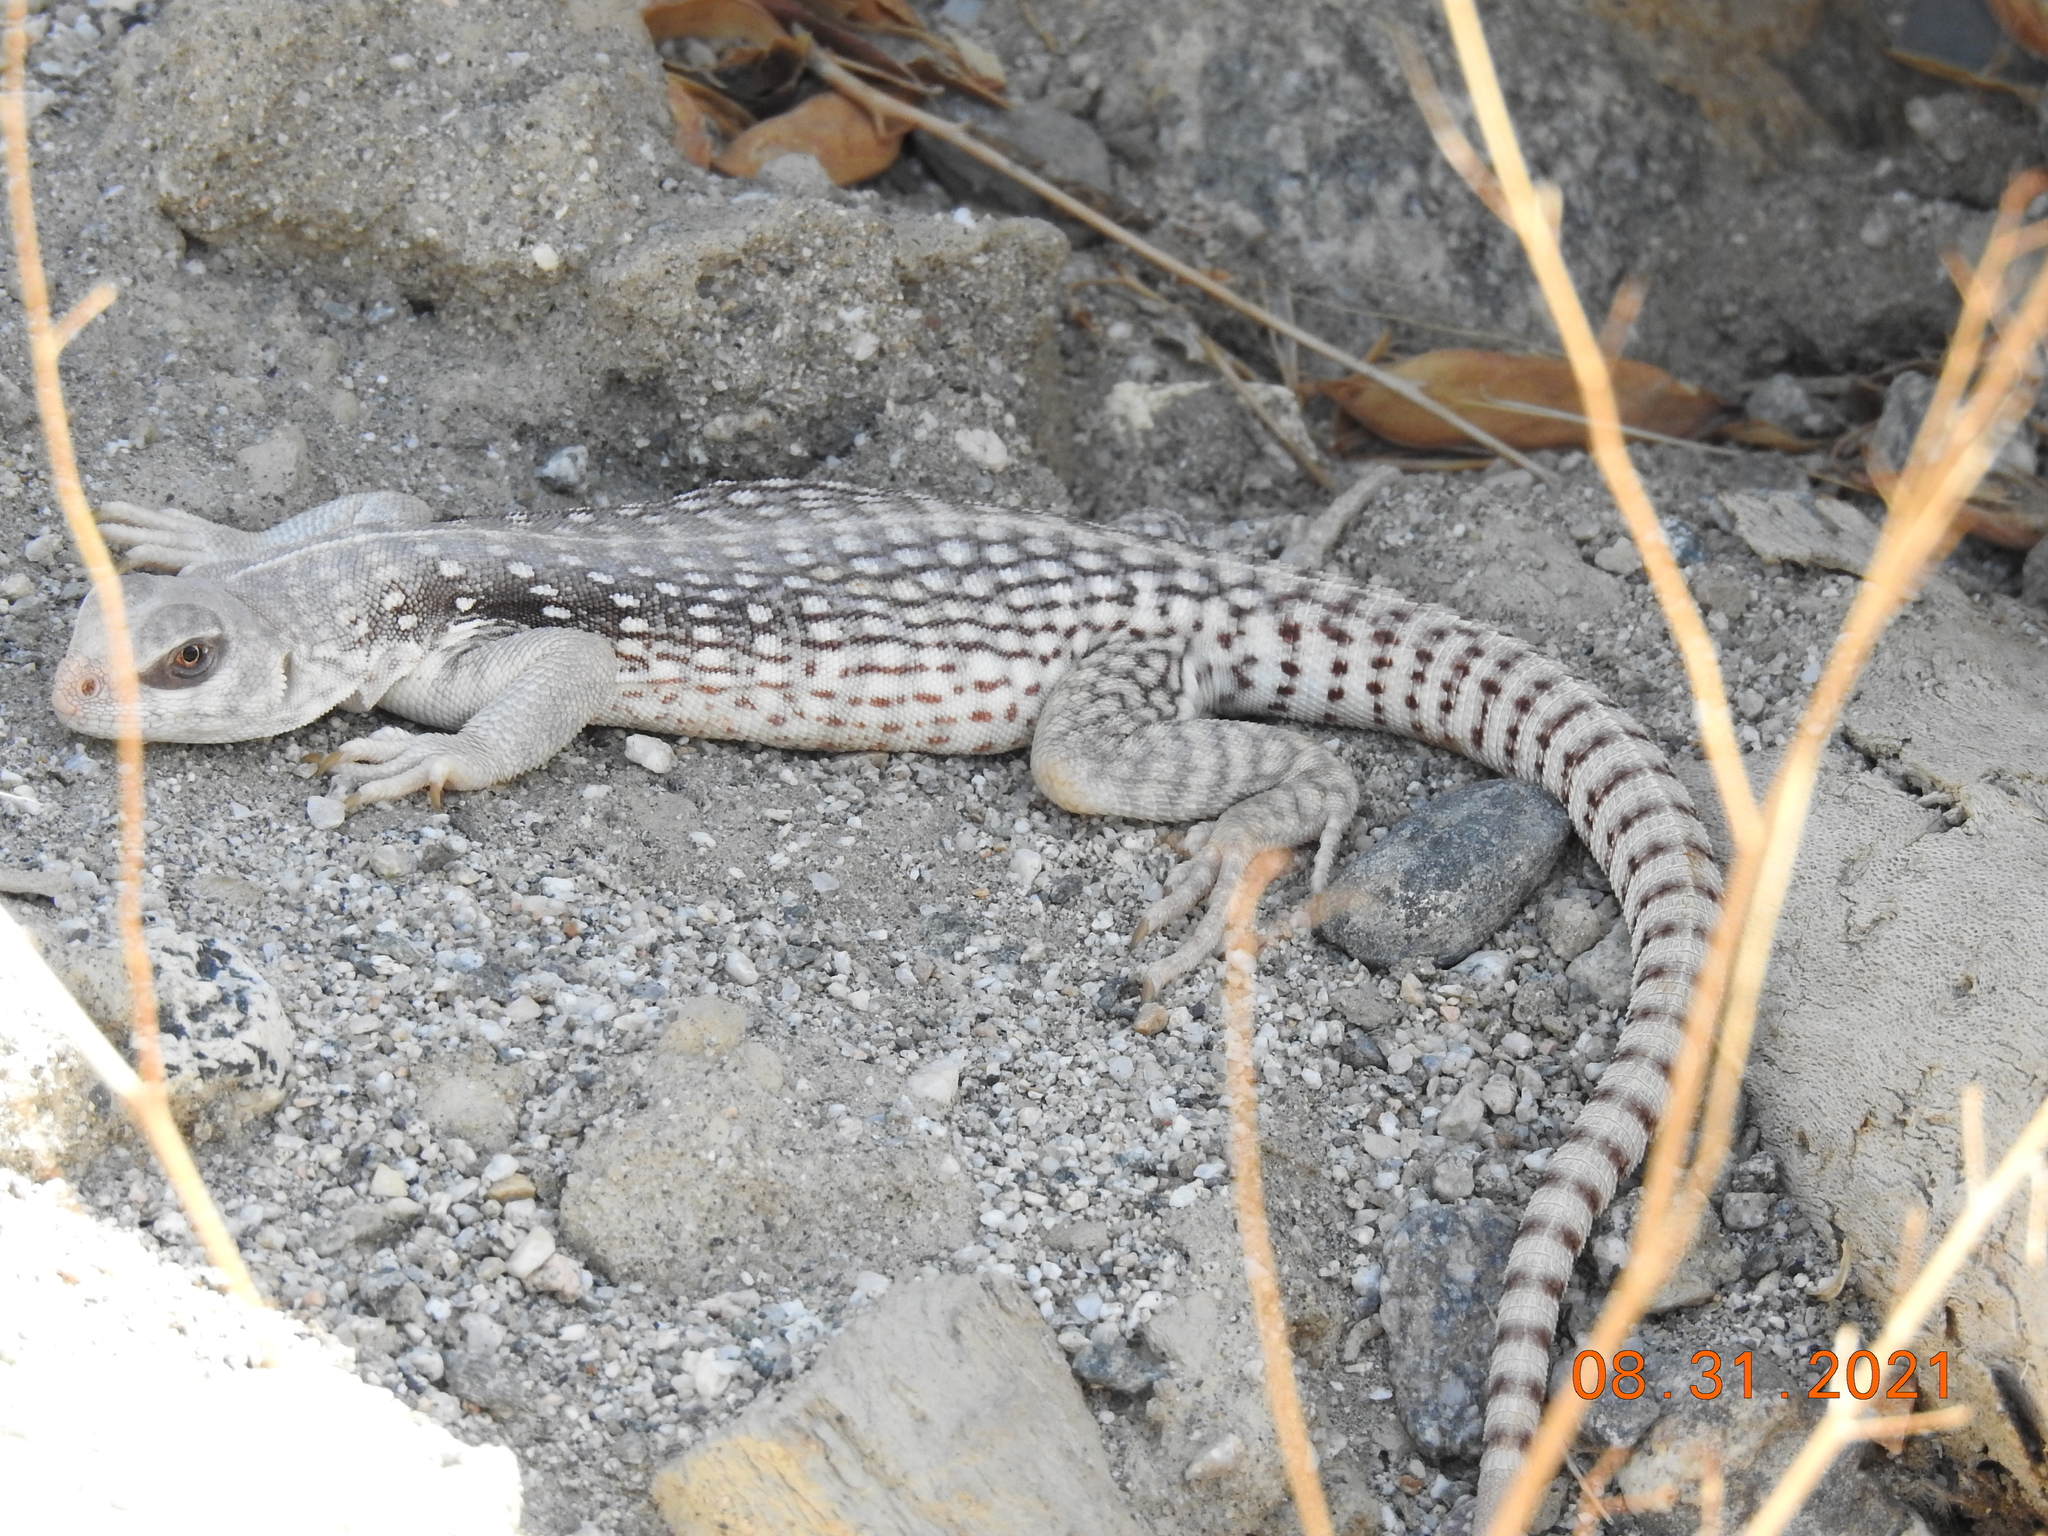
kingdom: Animalia
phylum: Chordata
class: Squamata
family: Iguanidae
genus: Dipsosaurus
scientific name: Dipsosaurus dorsalis
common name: Desert iguana
